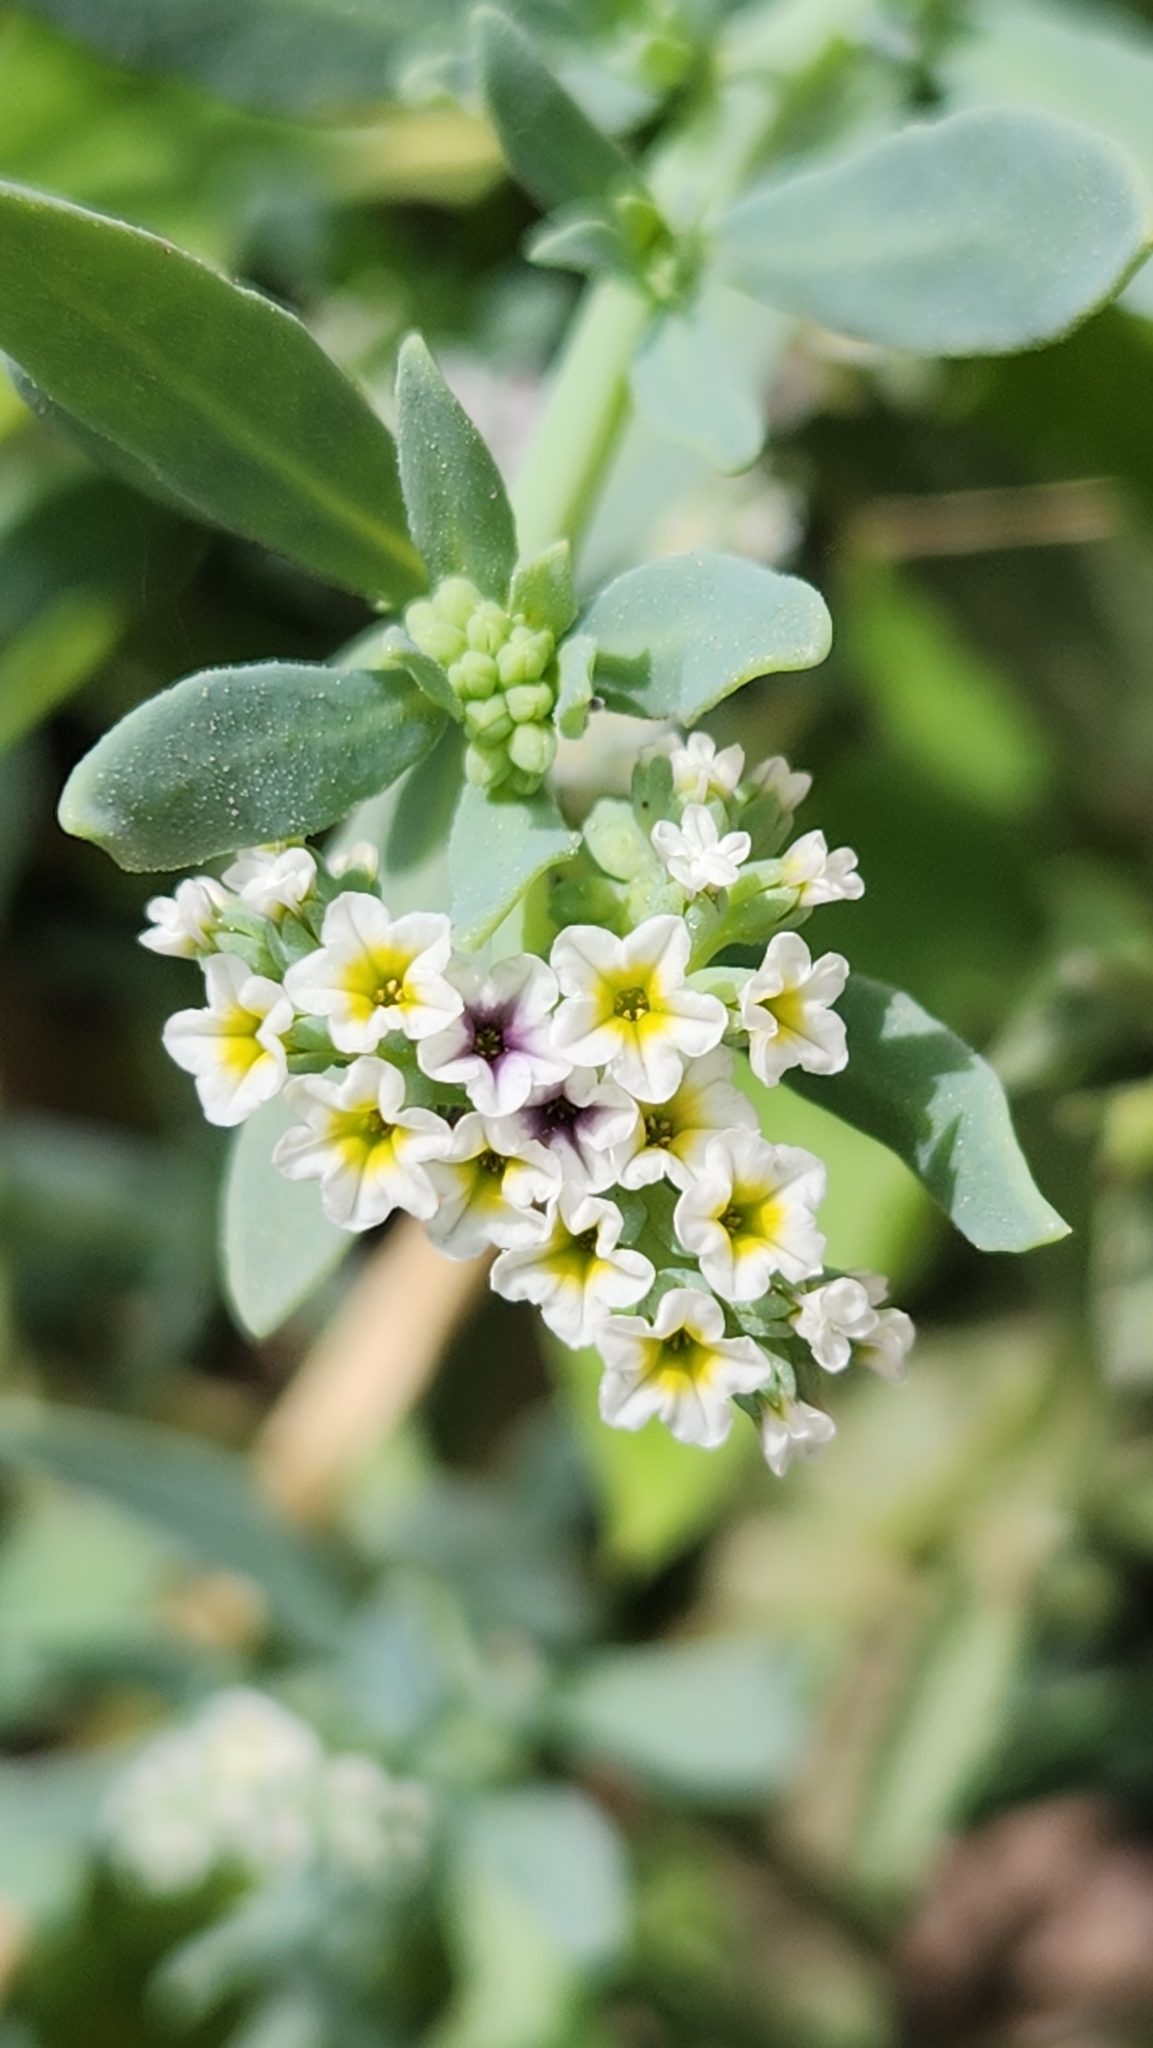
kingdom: Plantae
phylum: Tracheophyta
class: Magnoliopsida
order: Boraginales
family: Heliotropiaceae
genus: Heliotropium
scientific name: Heliotropium curassavicum
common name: Seaside heliotrope
